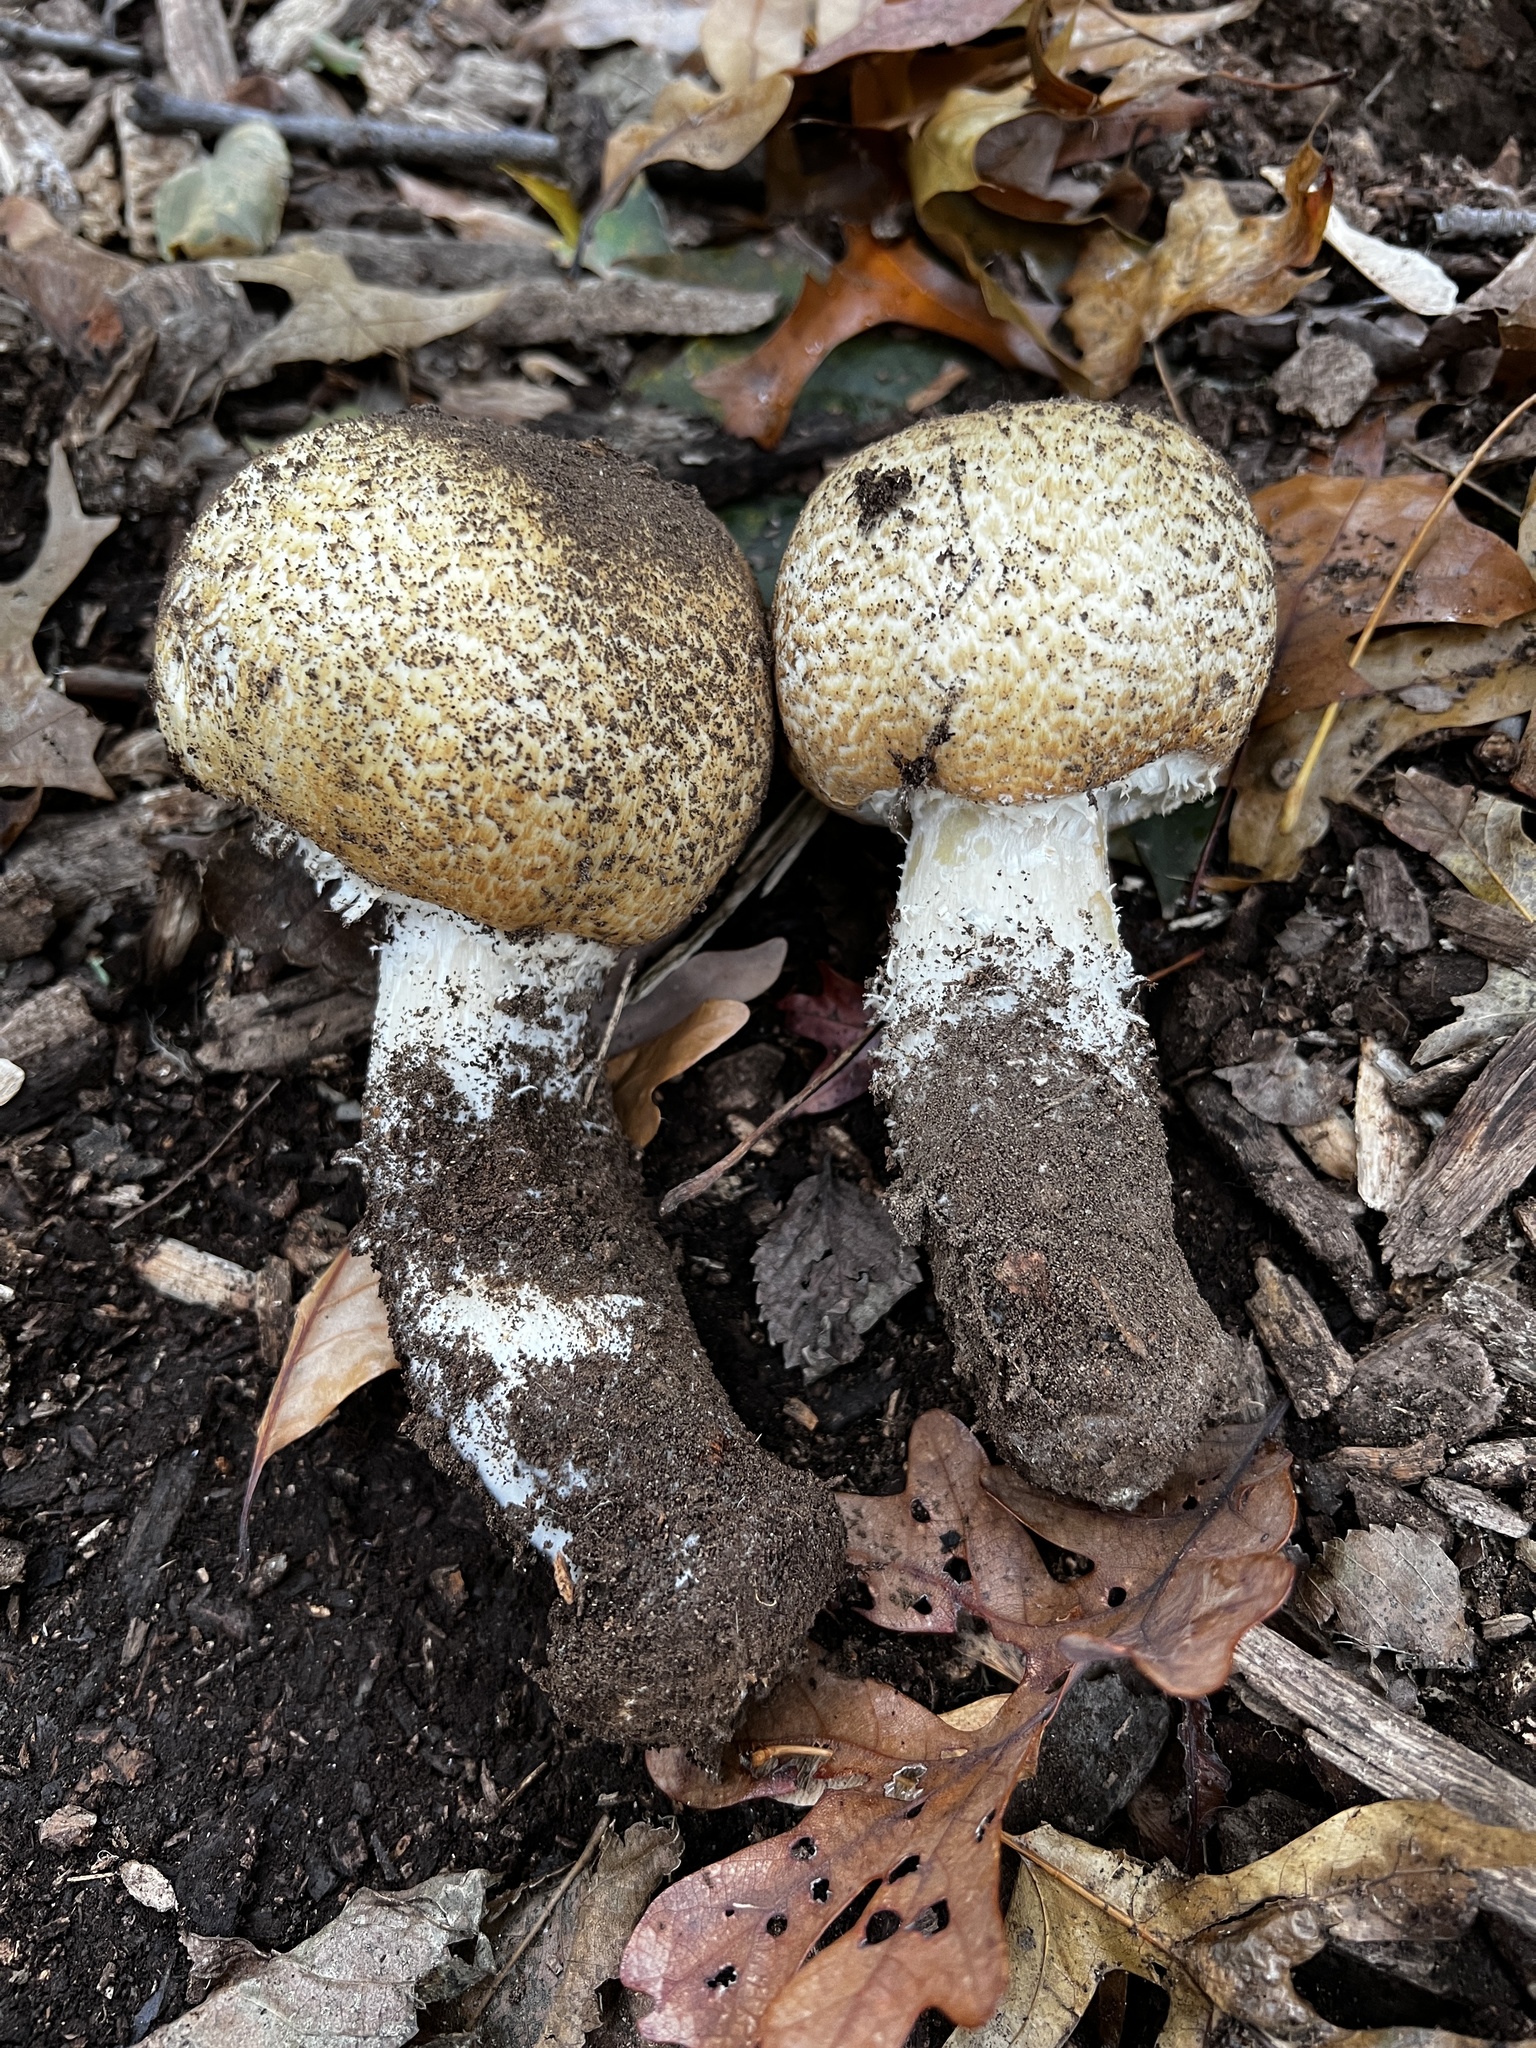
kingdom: Fungi
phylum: Basidiomycota
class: Agaricomycetes
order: Agaricales
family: Agaricaceae
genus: Agaricus
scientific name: Agaricus nanaugustus
